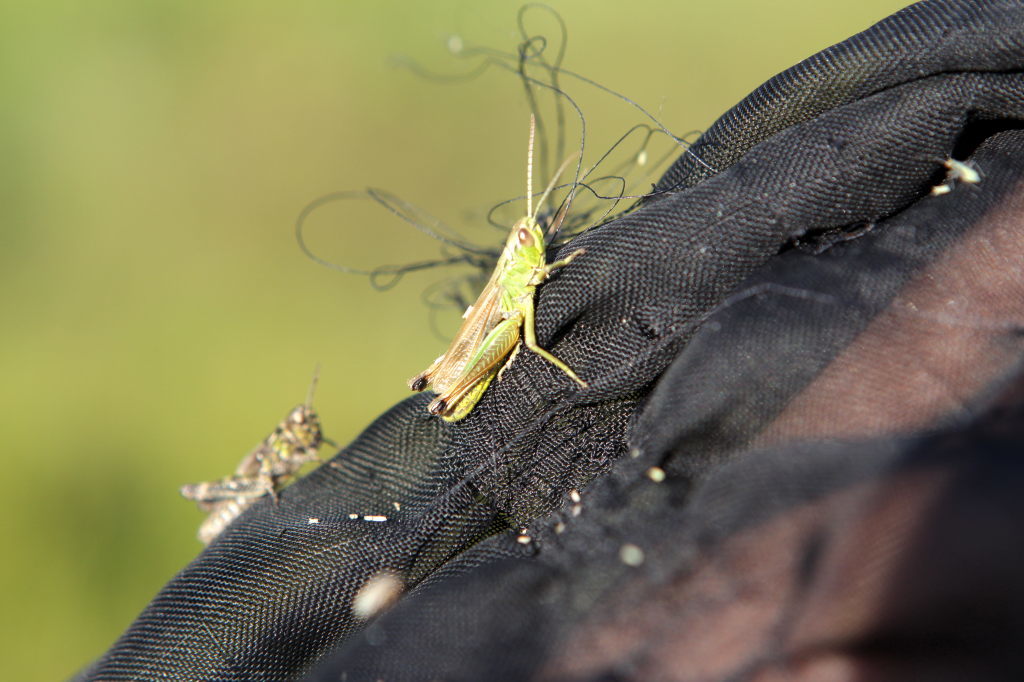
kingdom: Animalia
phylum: Arthropoda
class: Insecta
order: Orthoptera
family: Acrididae
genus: Pseudochorthippus
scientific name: Pseudochorthippus parallelus
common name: Meadow grasshopper
